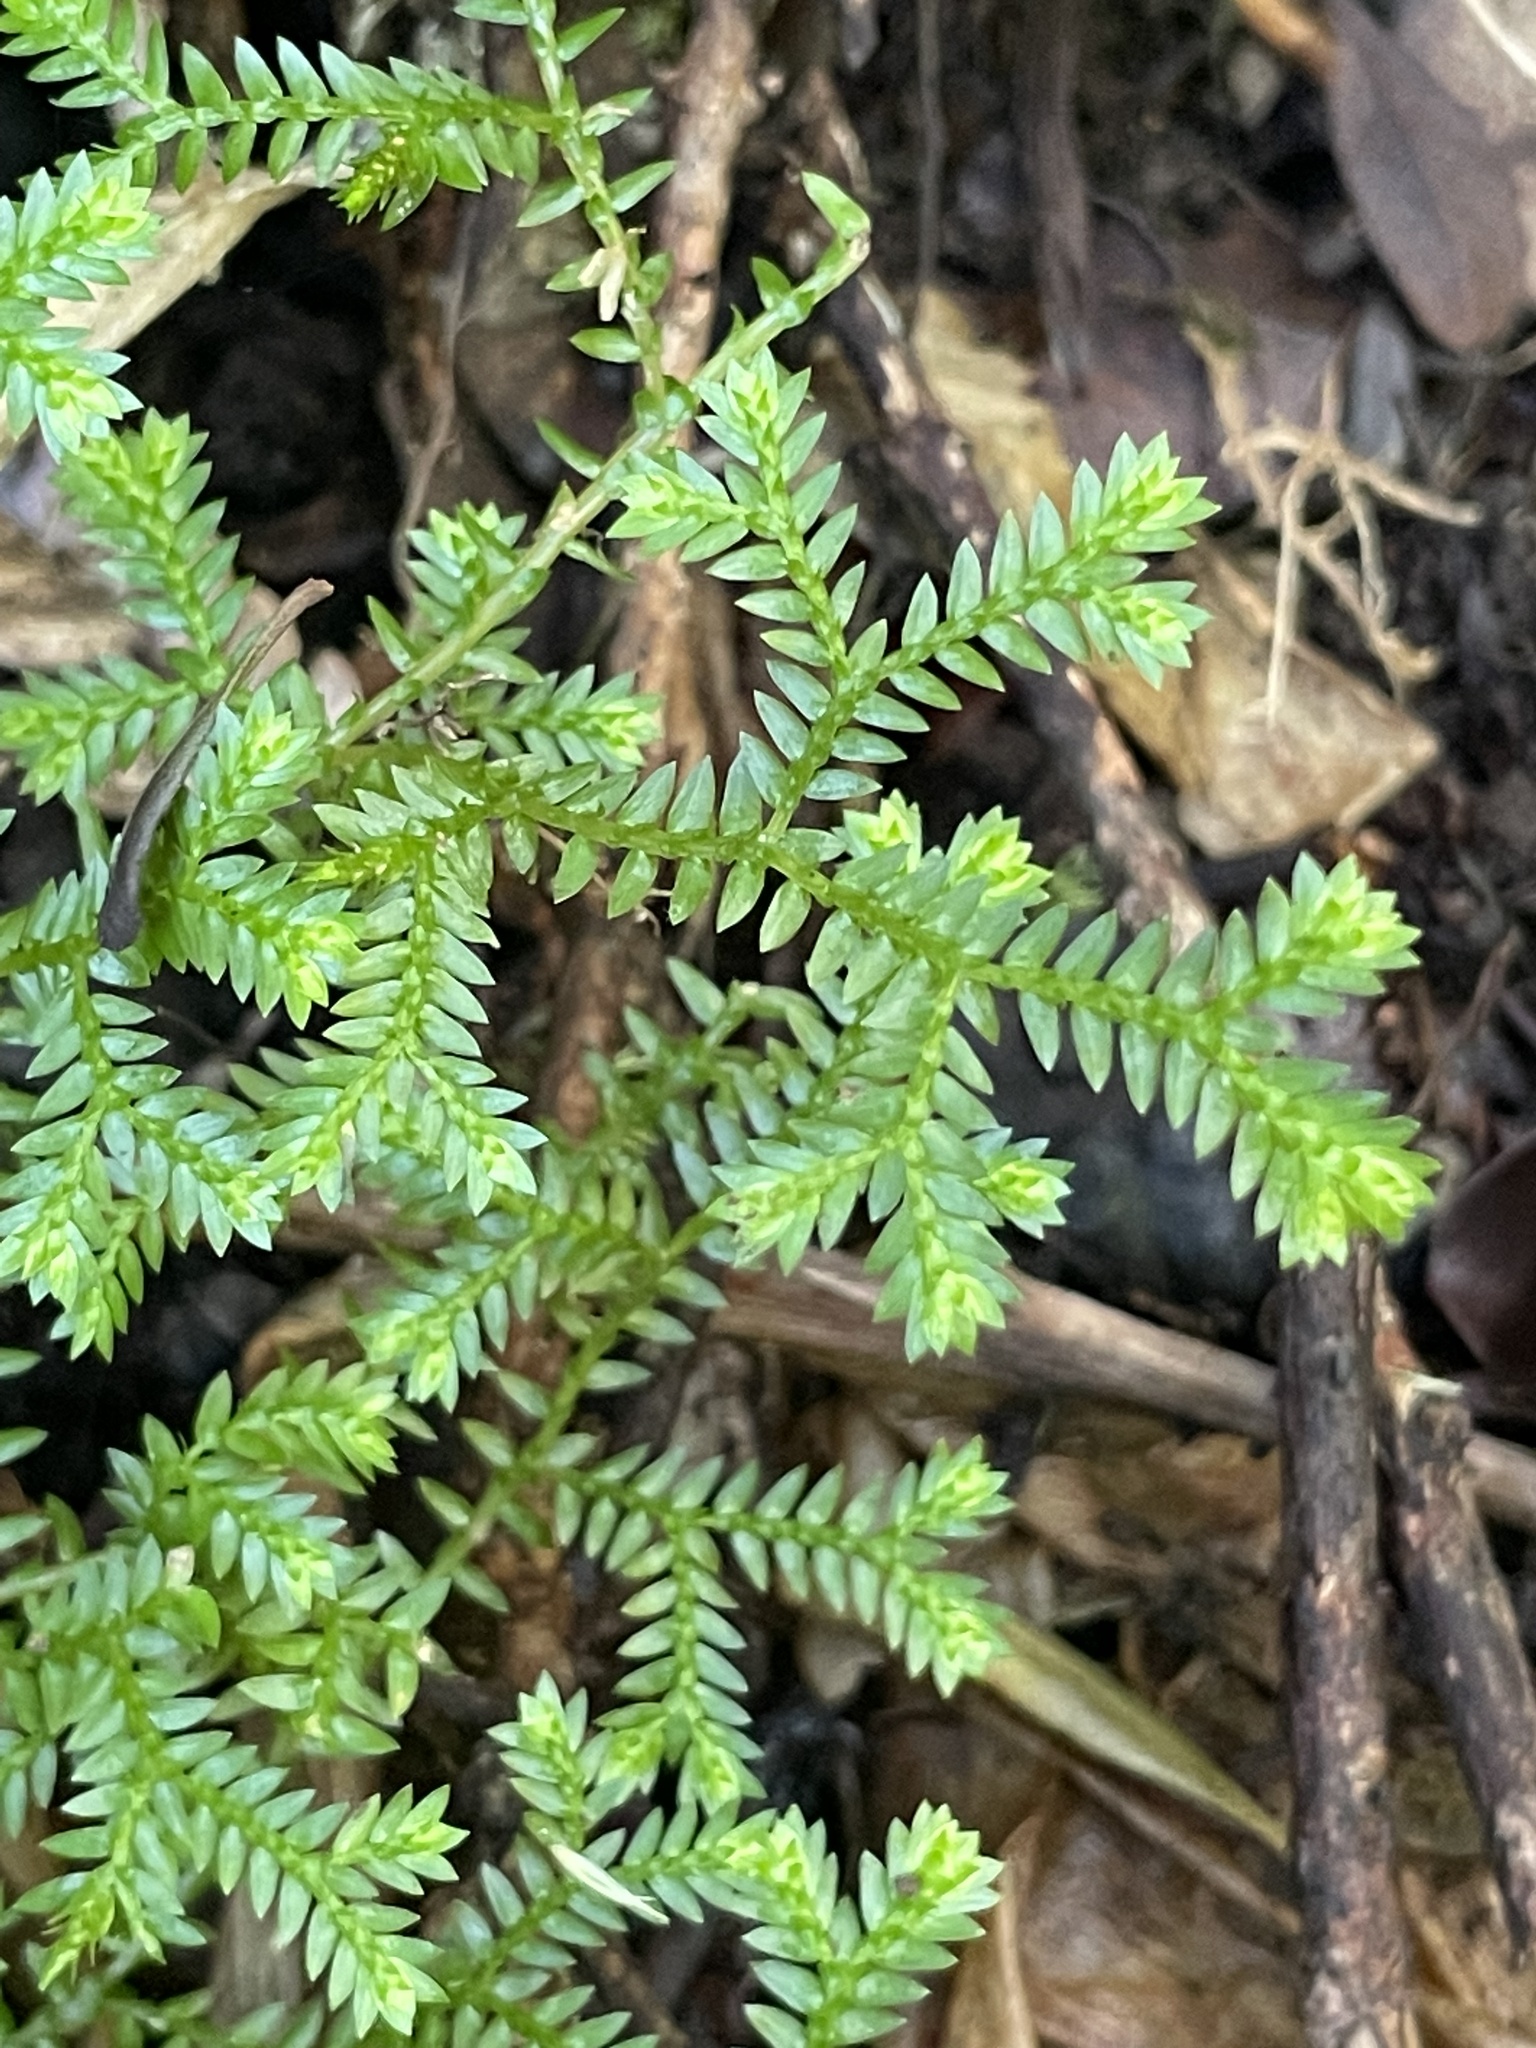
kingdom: Plantae
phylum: Tracheophyta
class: Lycopodiopsida
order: Selaginellales
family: Selaginellaceae
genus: Selaginella
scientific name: Selaginella kraussiana
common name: Krauss' spikemoss
